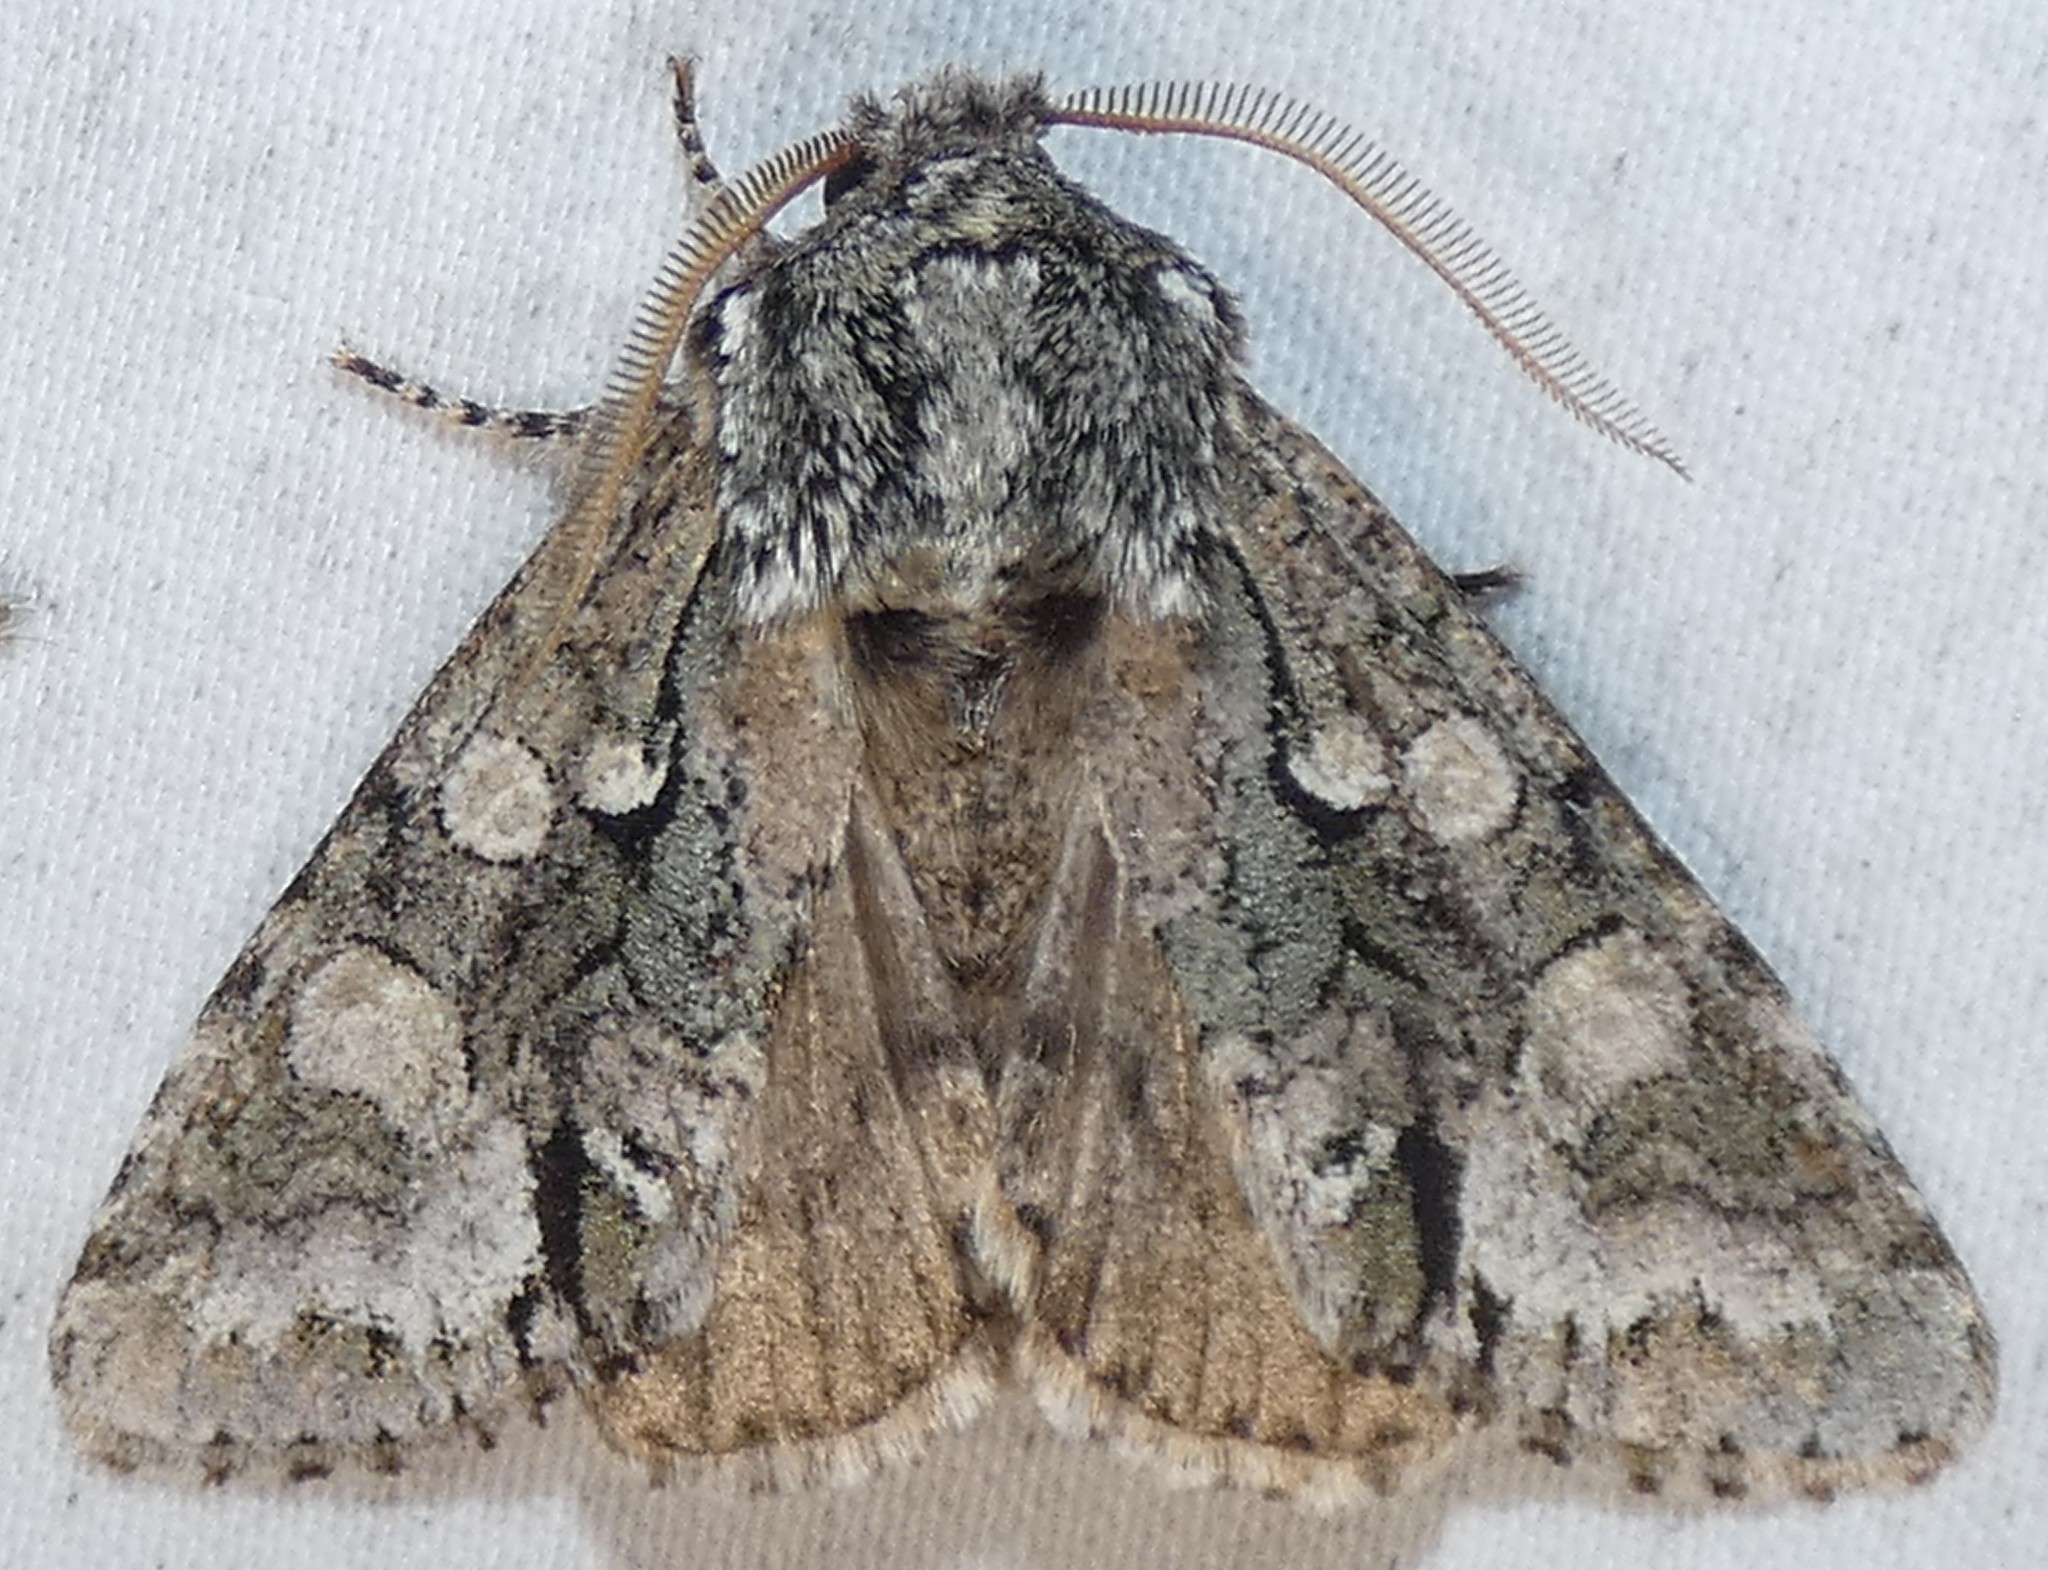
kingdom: Animalia
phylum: Arthropoda
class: Insecta
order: Lepidoptera
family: Noctuidae
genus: Psaphida
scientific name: Psaphida resumens
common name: Figure-eight sallow
